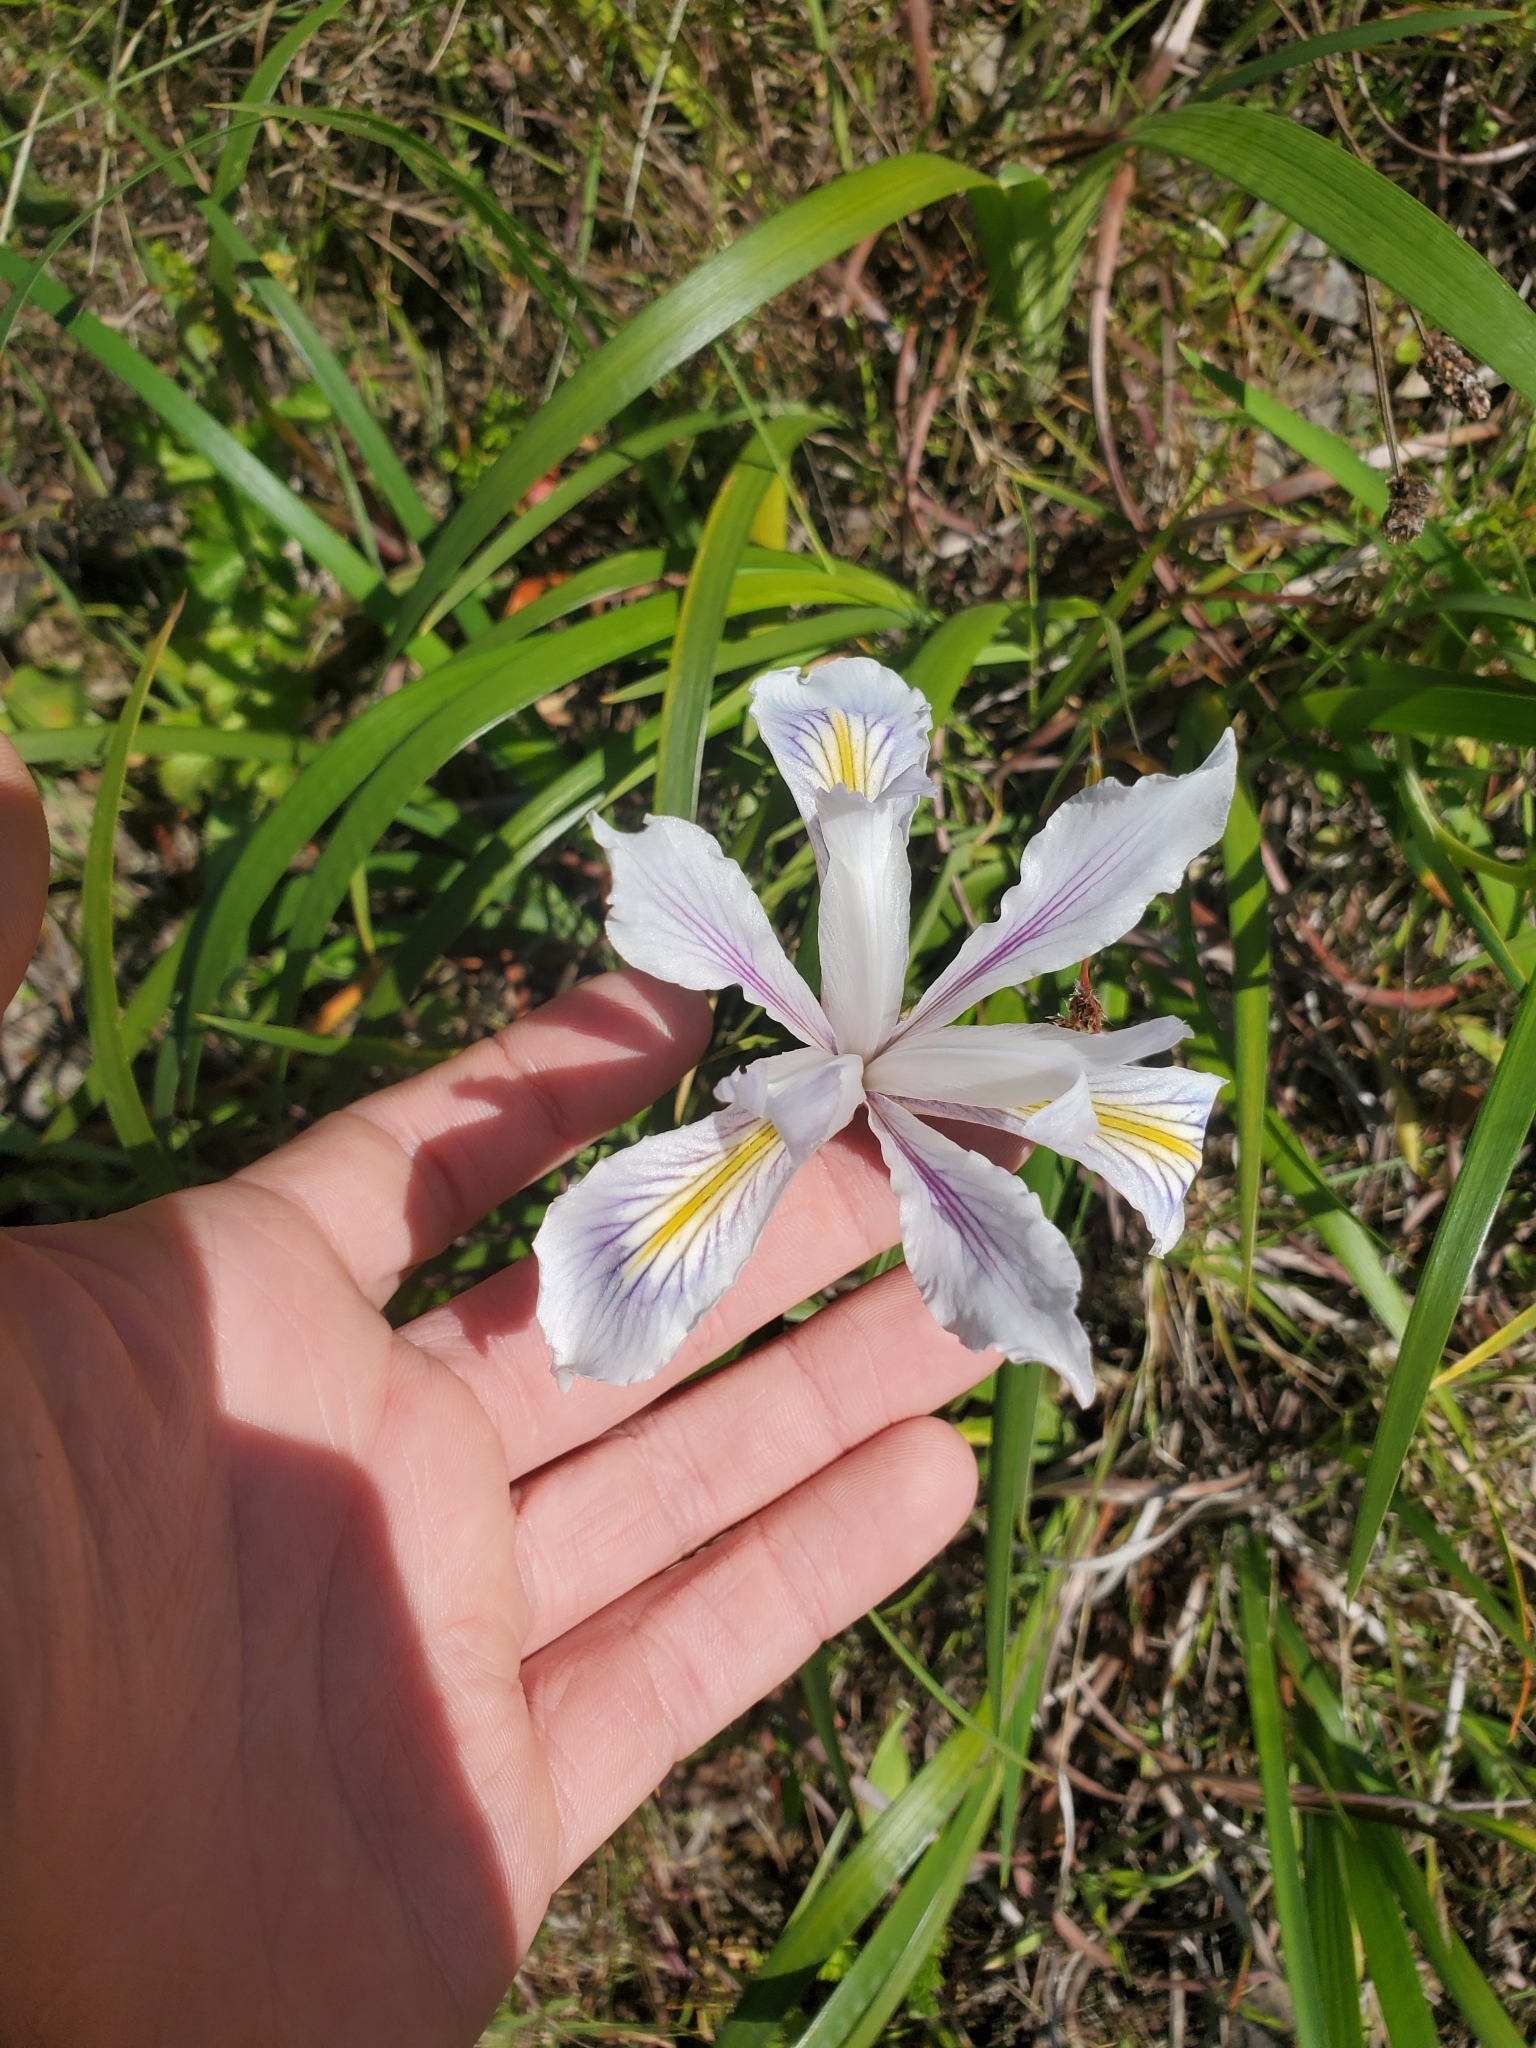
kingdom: Plantae
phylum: Tracheophyta
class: Liliopsida
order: Asparagales
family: Iridaceae
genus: Iris
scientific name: Iris douglasiana
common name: Marin iris
